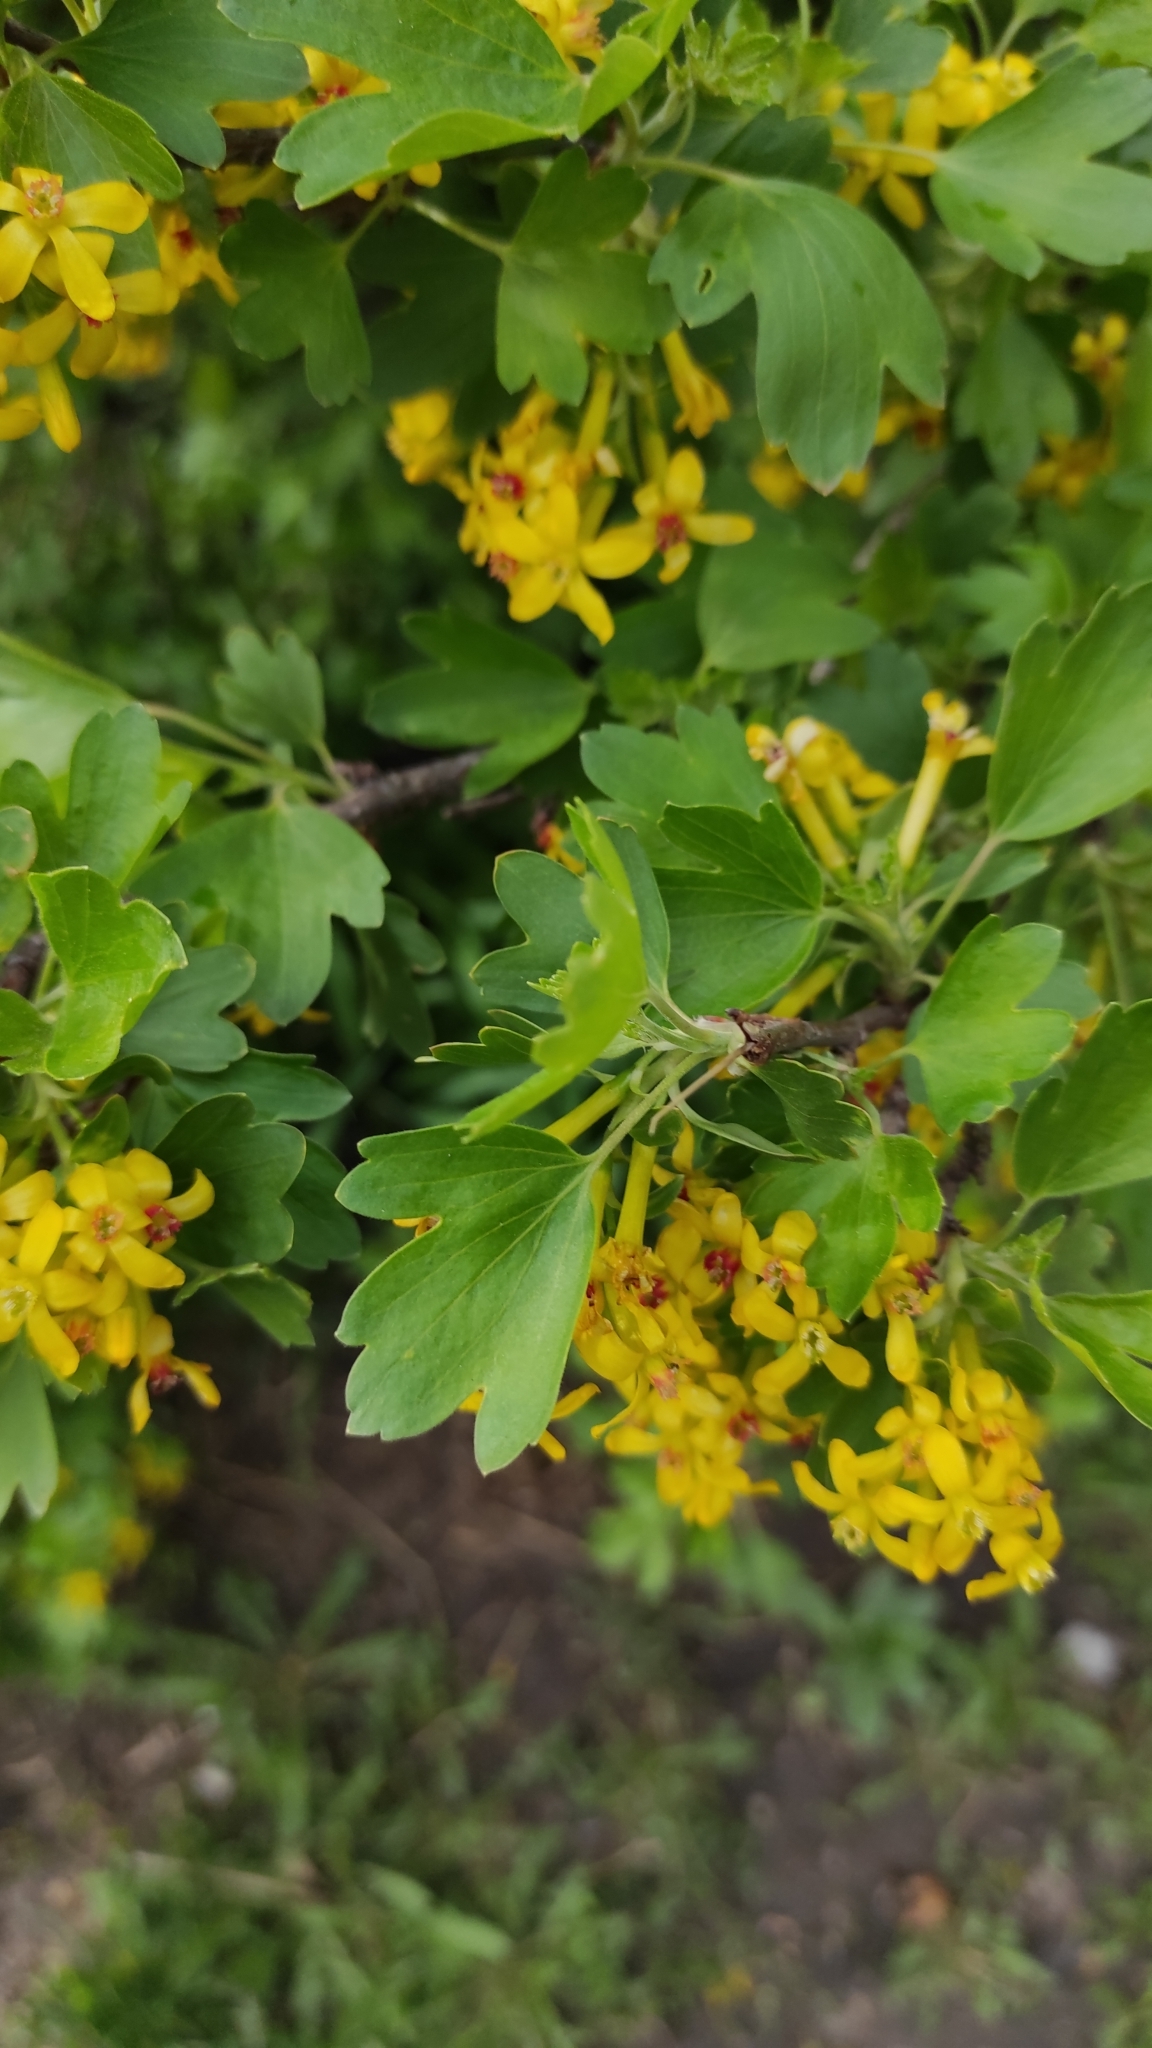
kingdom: Plantae
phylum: Tracheophyta
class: Magnoliopsida
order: Saxifragales
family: Grossulariaceae
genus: Ribes
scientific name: Ribes aureum
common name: Golden currant
